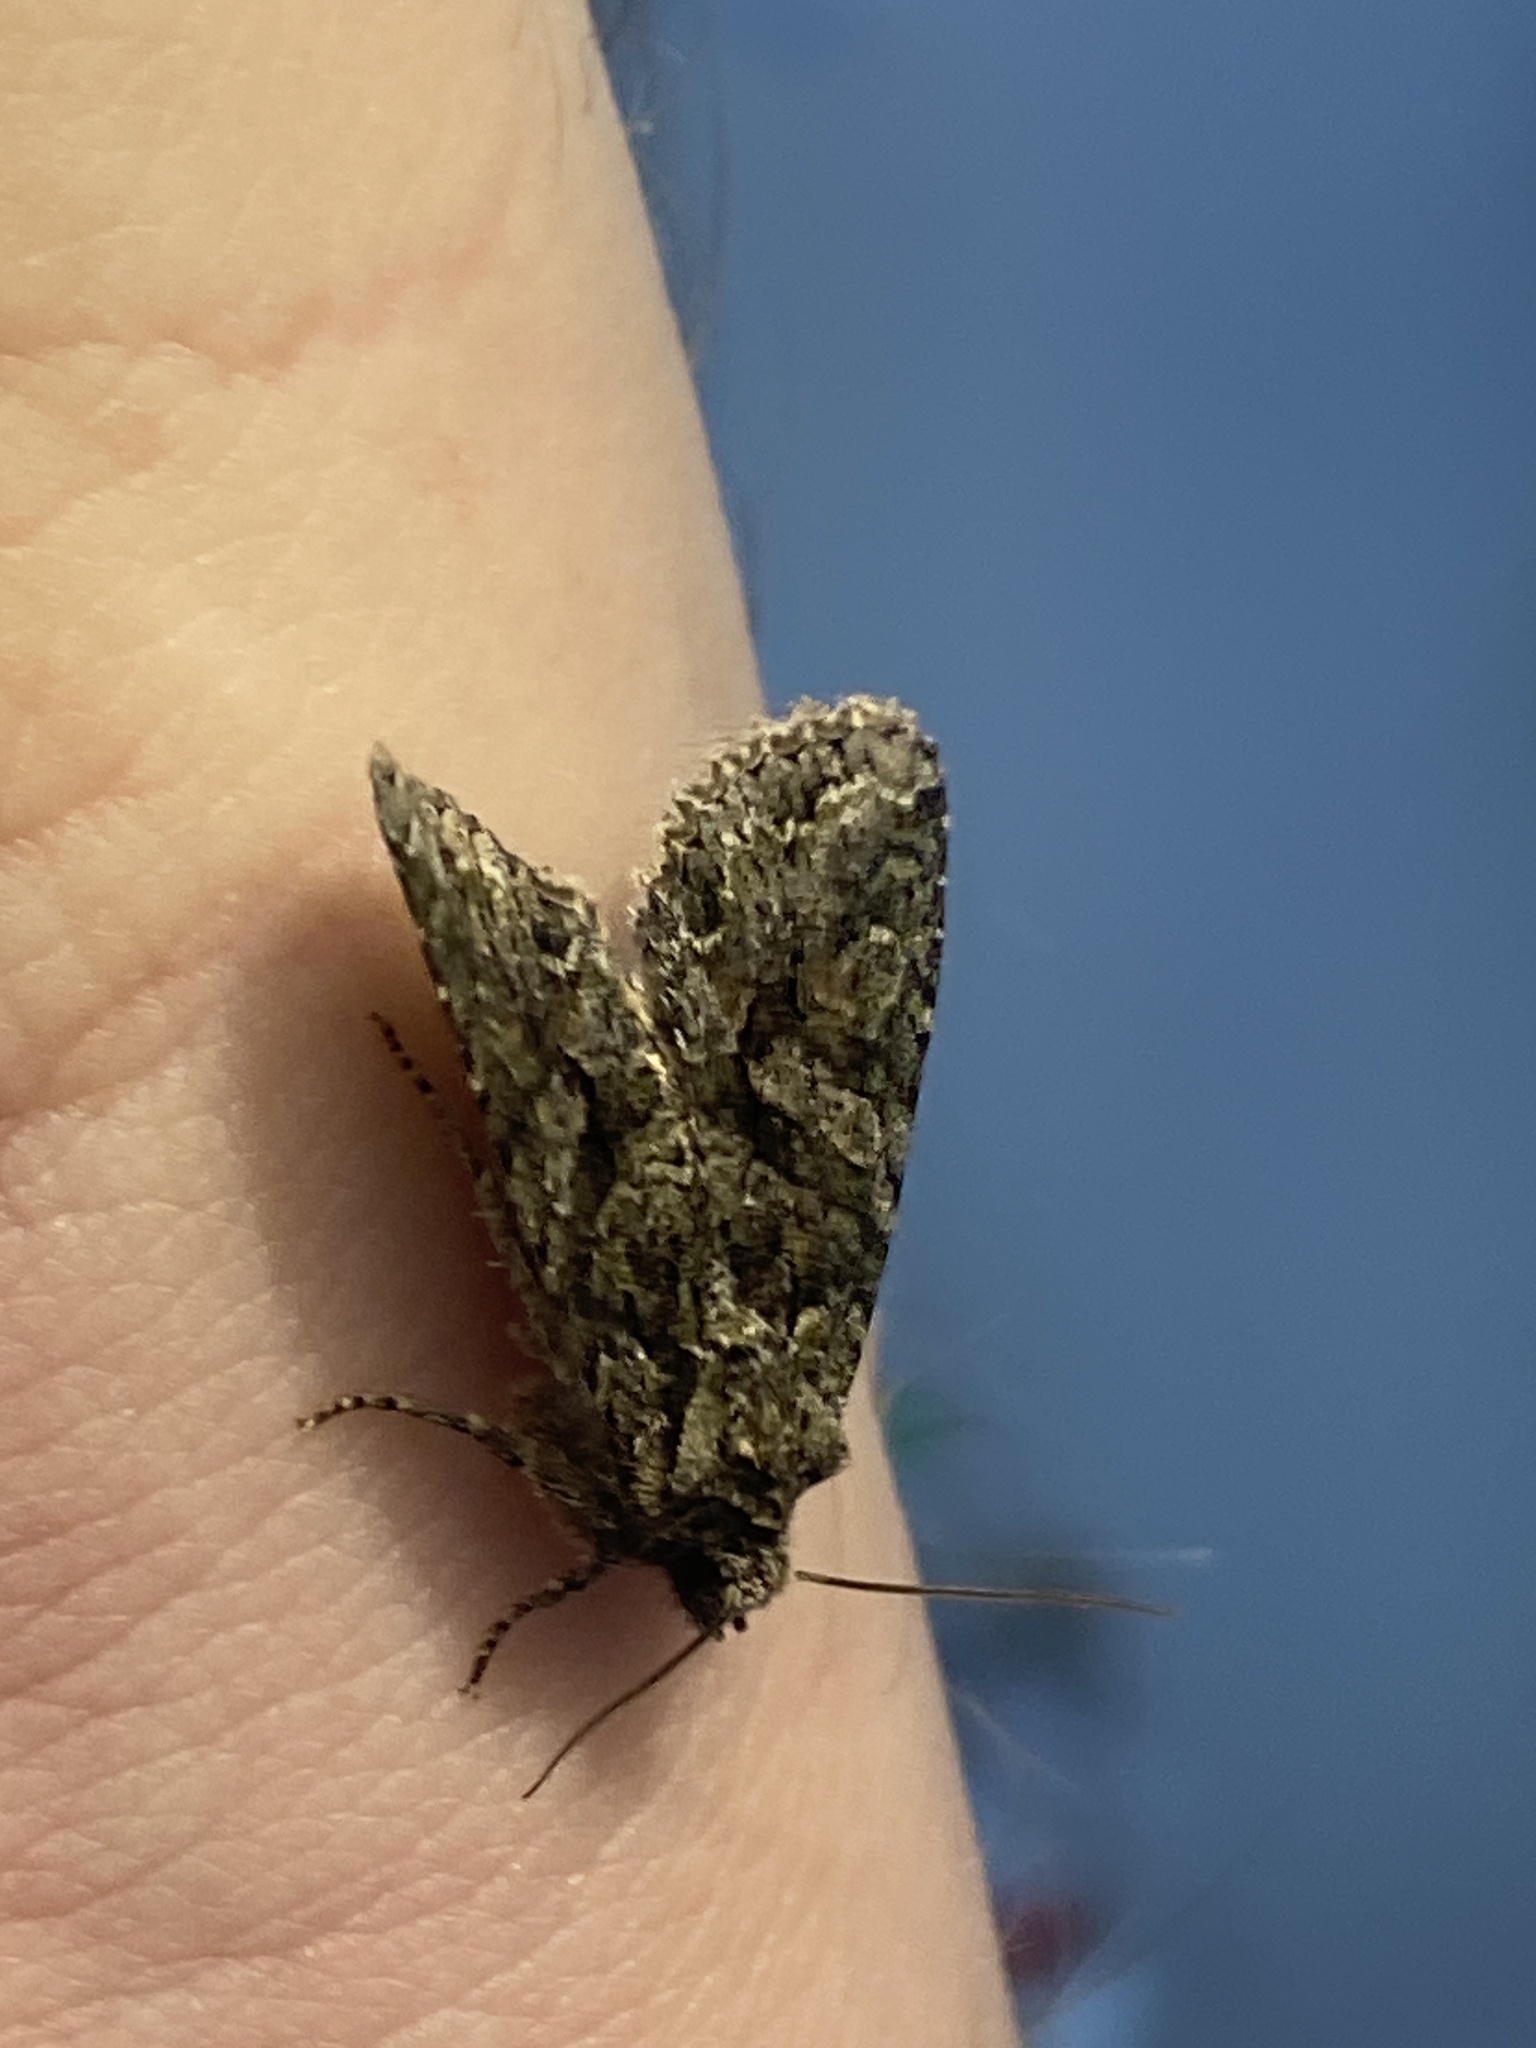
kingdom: Animalia
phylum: Arthropoda
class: Insecta
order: Lepidoptera
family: Noctuidae
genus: Dryobotodes
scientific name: Dryobotodes eremita
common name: Brindled green
